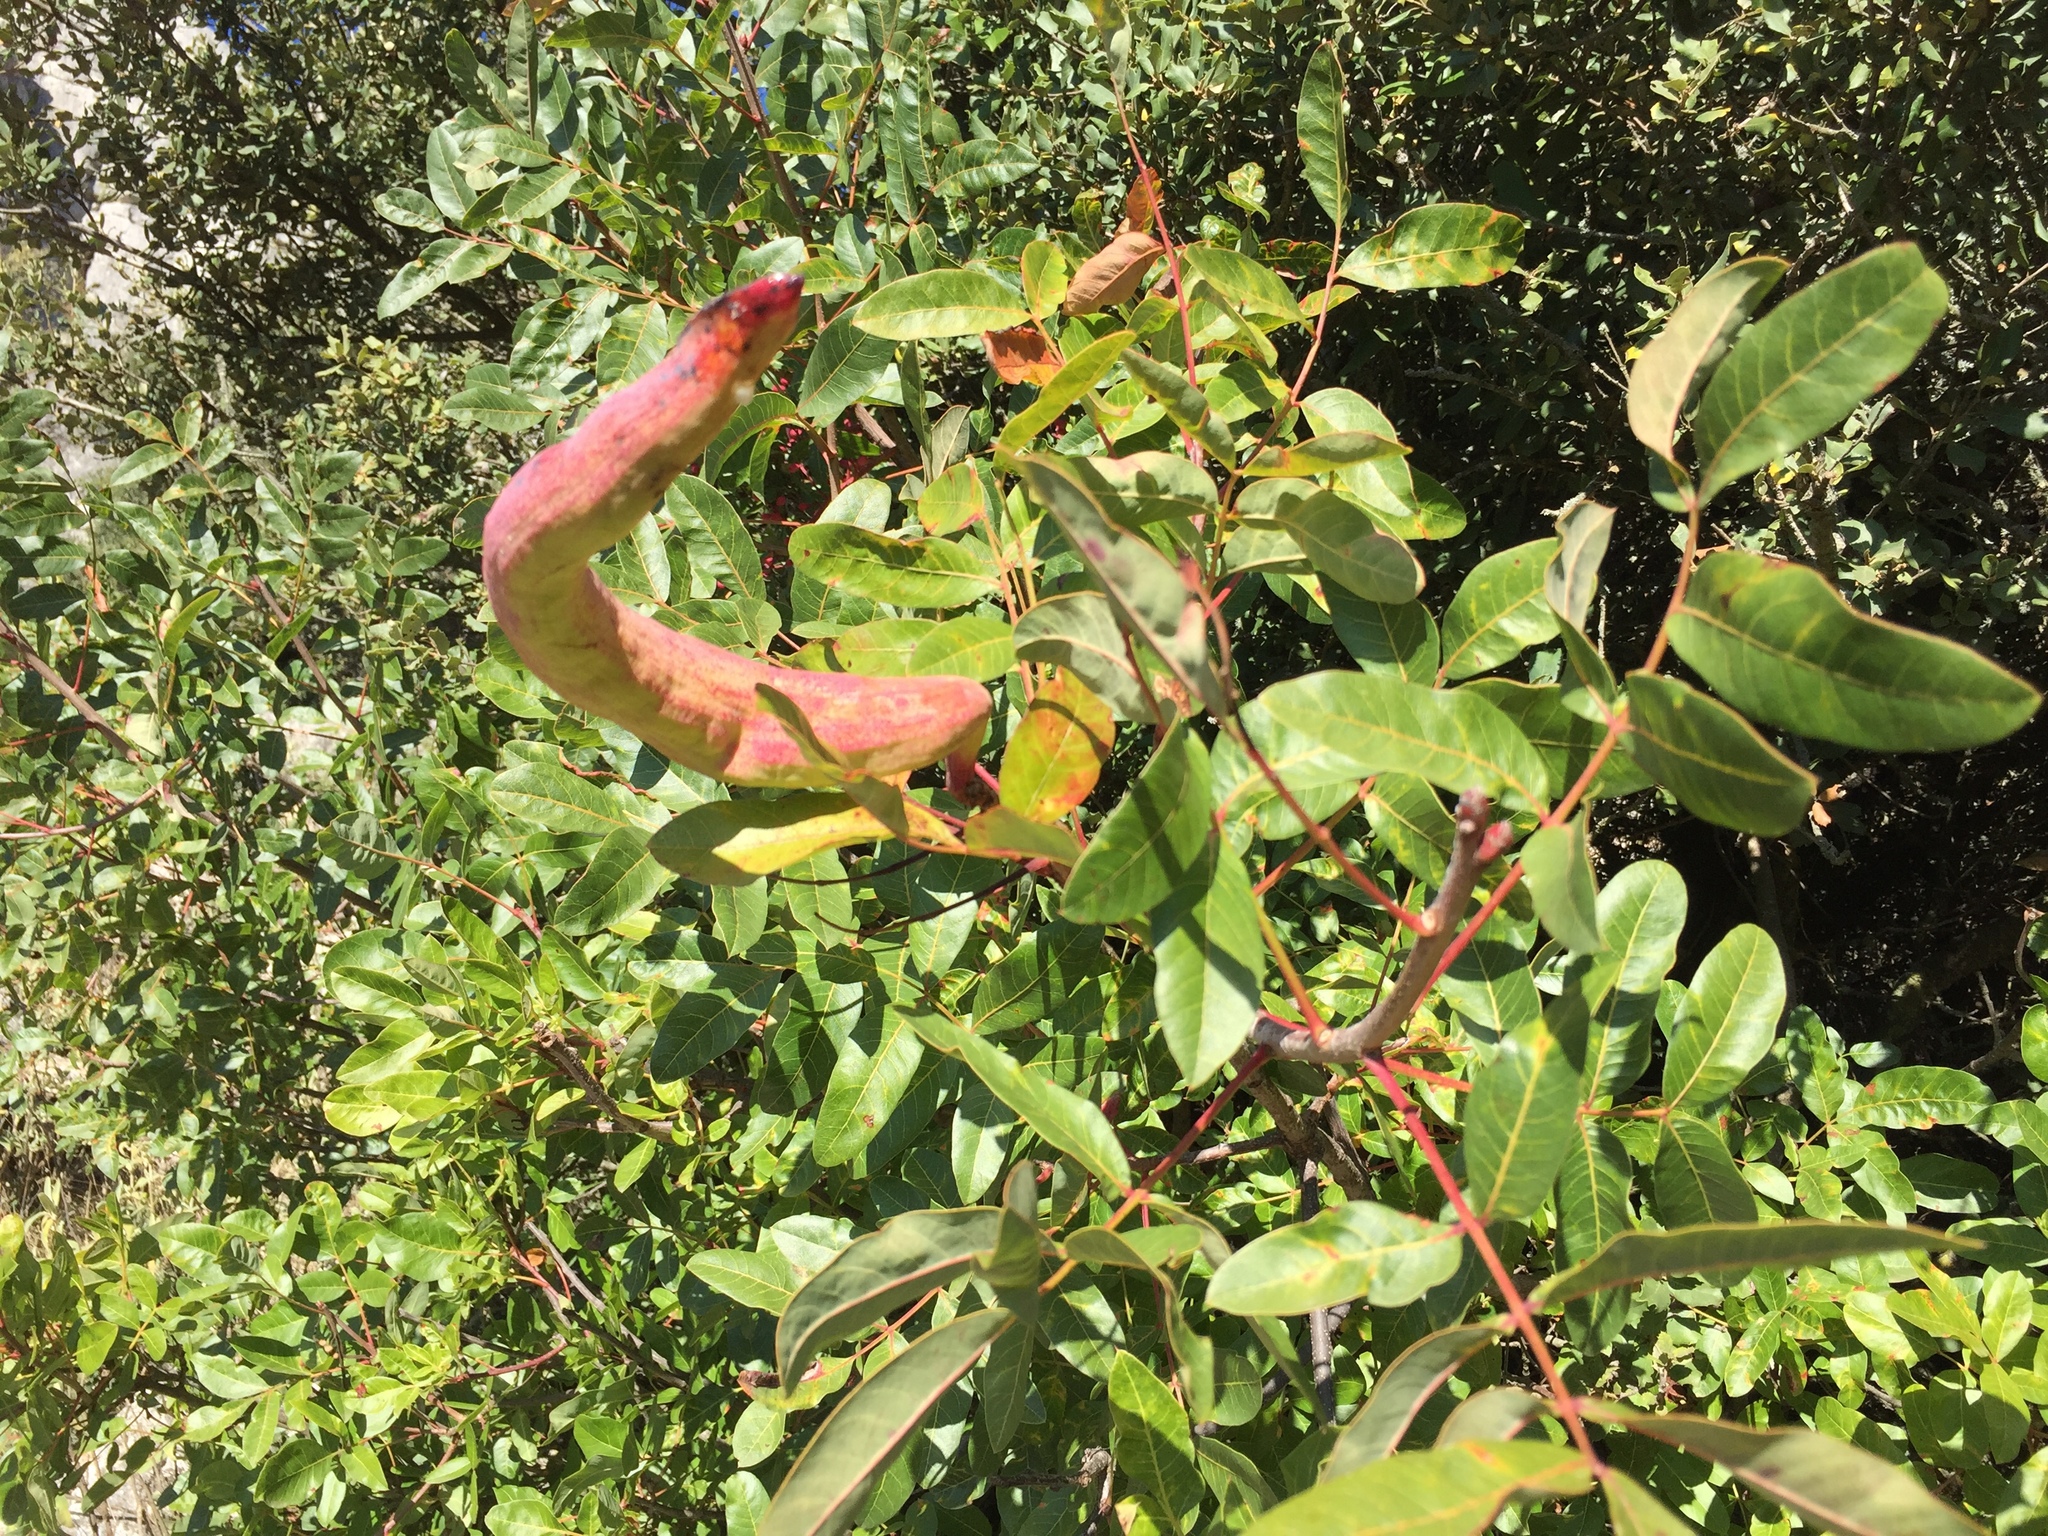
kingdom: Plantae
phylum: Tracheophyta
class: Magnoliopsida
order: Sapindales
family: Anacardiaceae
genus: Pistacia
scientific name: Pistacia terebinthus
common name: Terebinth
